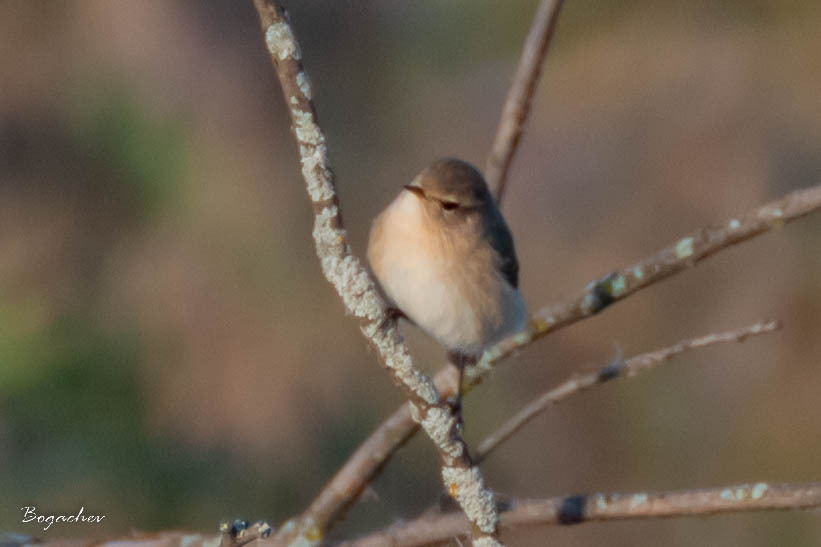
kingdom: Animalia
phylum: Chordata
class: Aves
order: Passeriformes
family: Phylloscopidae
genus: Phylloscopus
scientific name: Phylloscopus collybita
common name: Common chiffchaff
